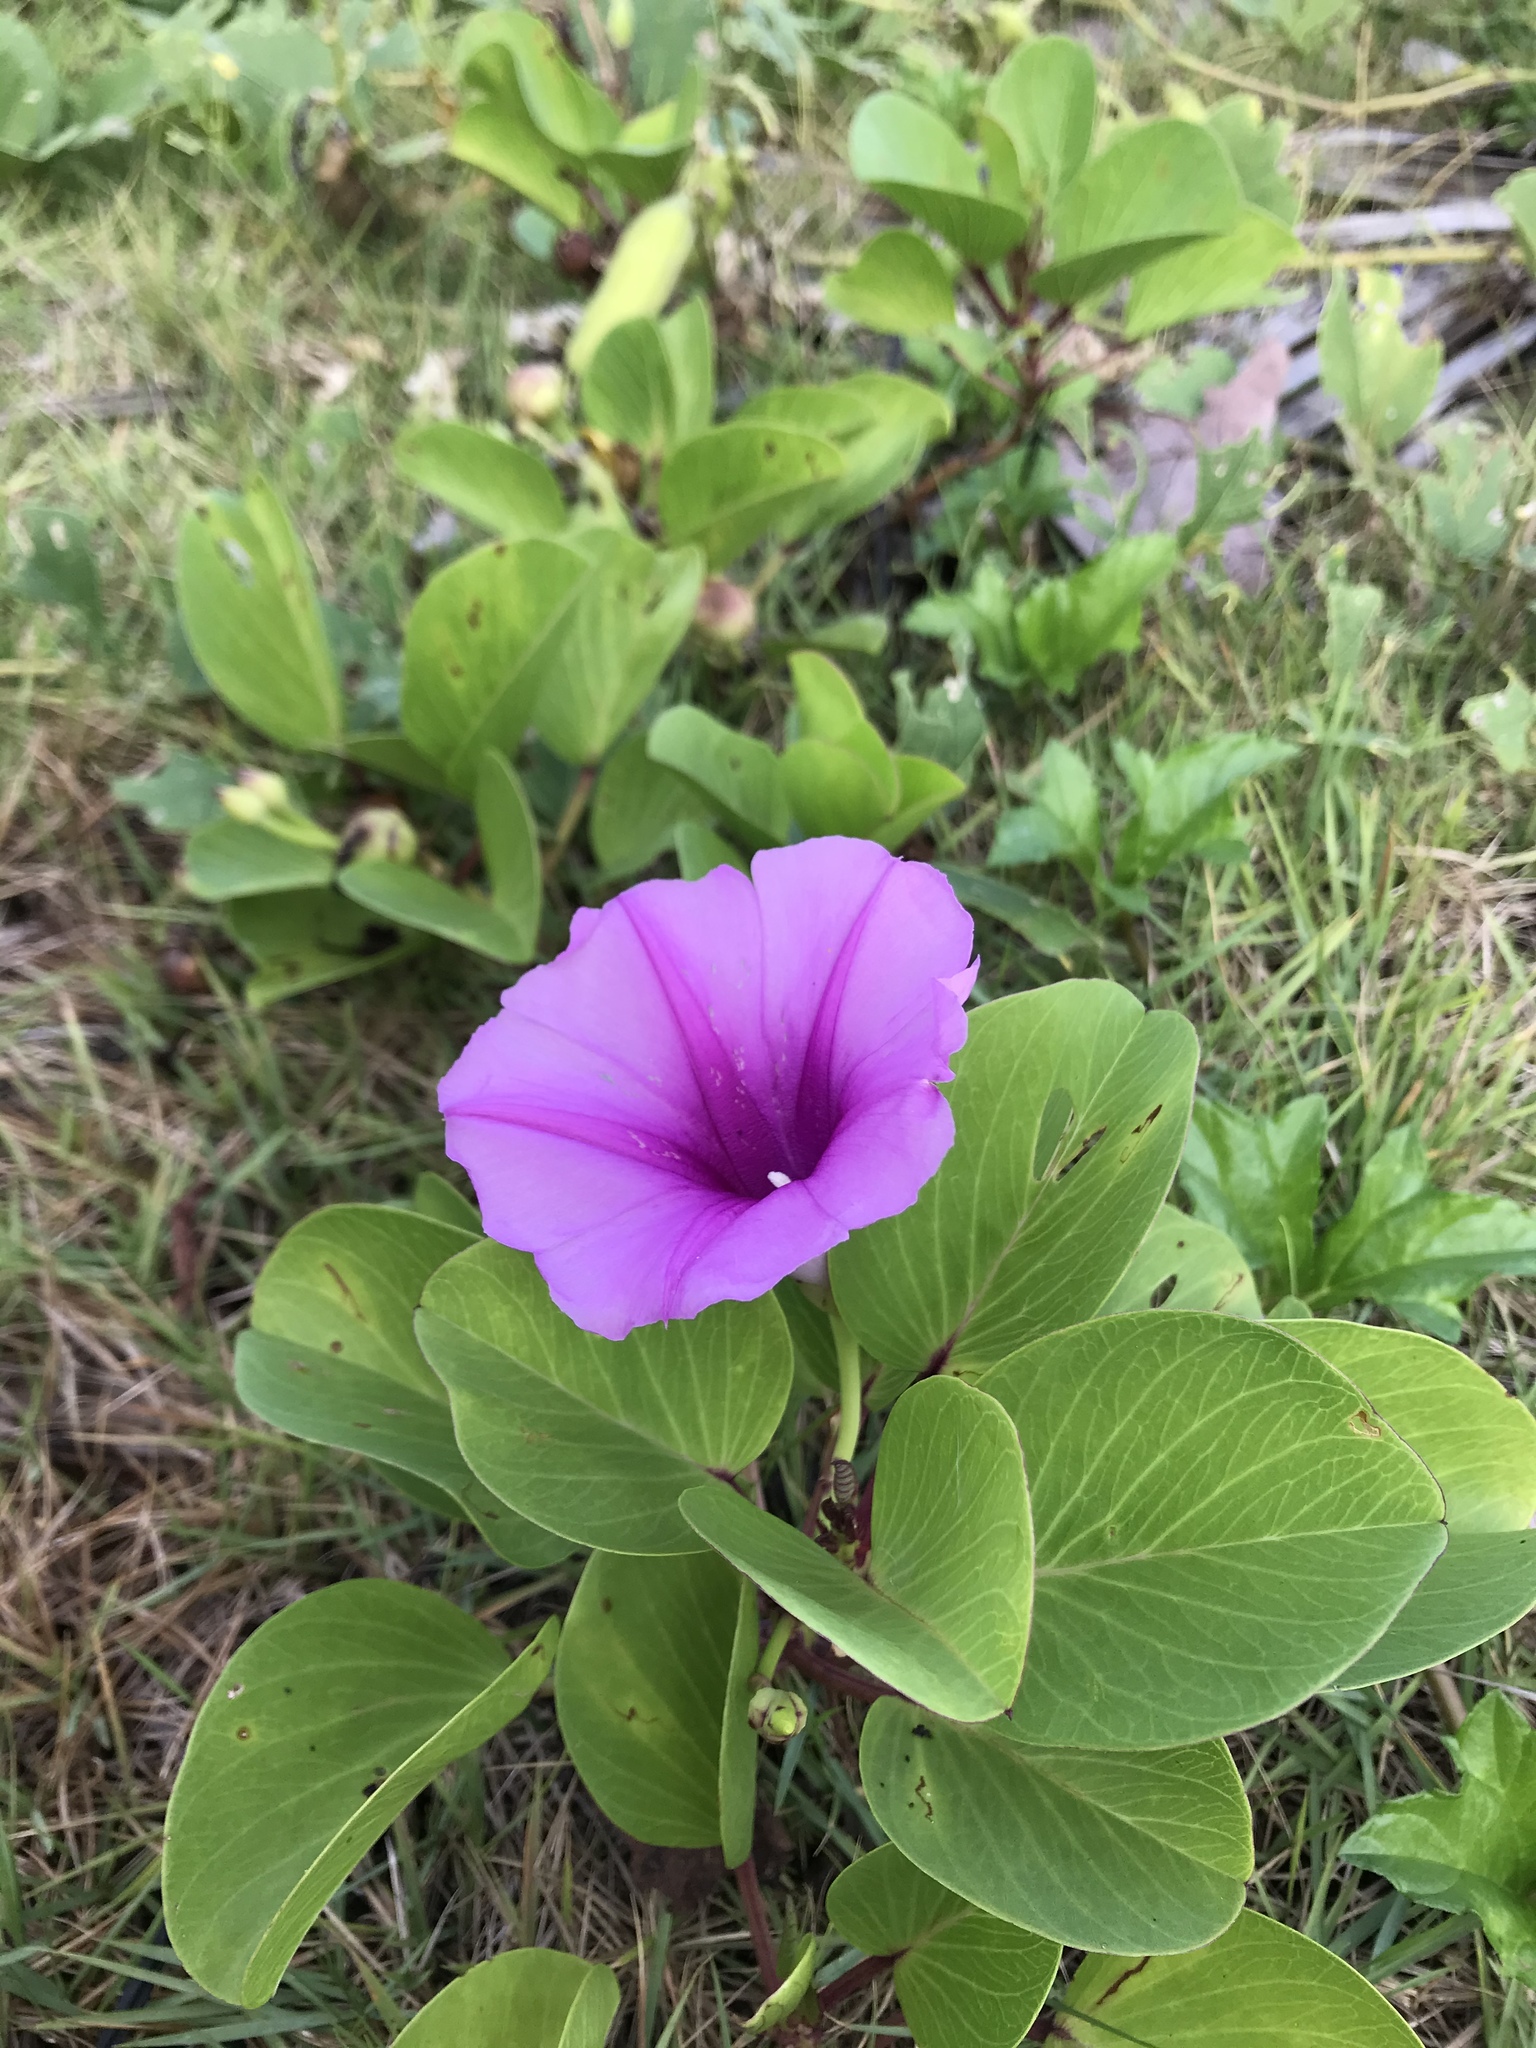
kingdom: Plantae
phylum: Tracheophyta
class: Magnoliopsida
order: Solanales
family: Convolvulaceae
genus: Ipomoea
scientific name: Ipomoea pes-caprae
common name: Beach morning glory
